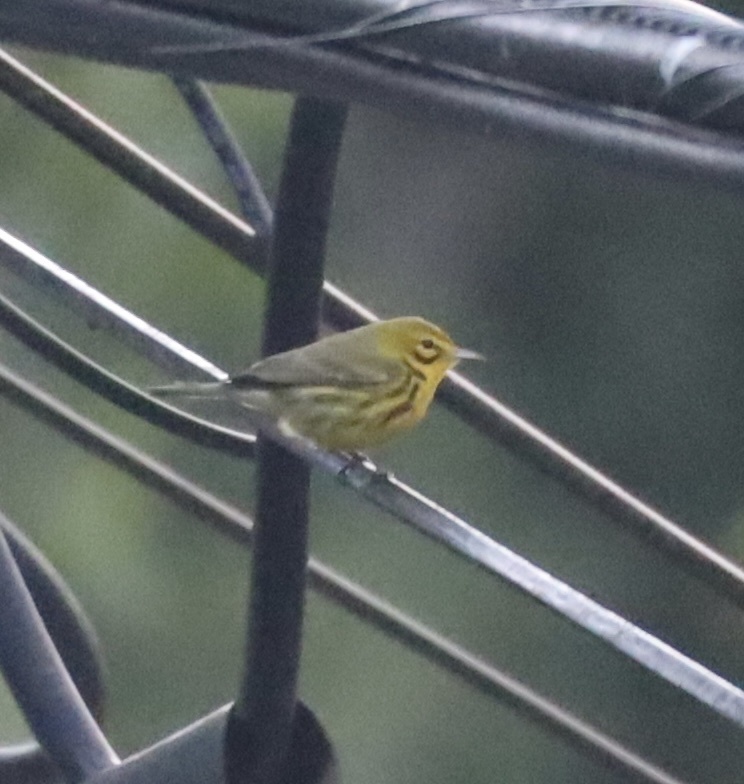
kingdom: Animalia
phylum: Chordata
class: Aves
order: Passeriformes
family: Parulidae
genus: Setophaga
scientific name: Setophaga discolor
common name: Prairie warbler
